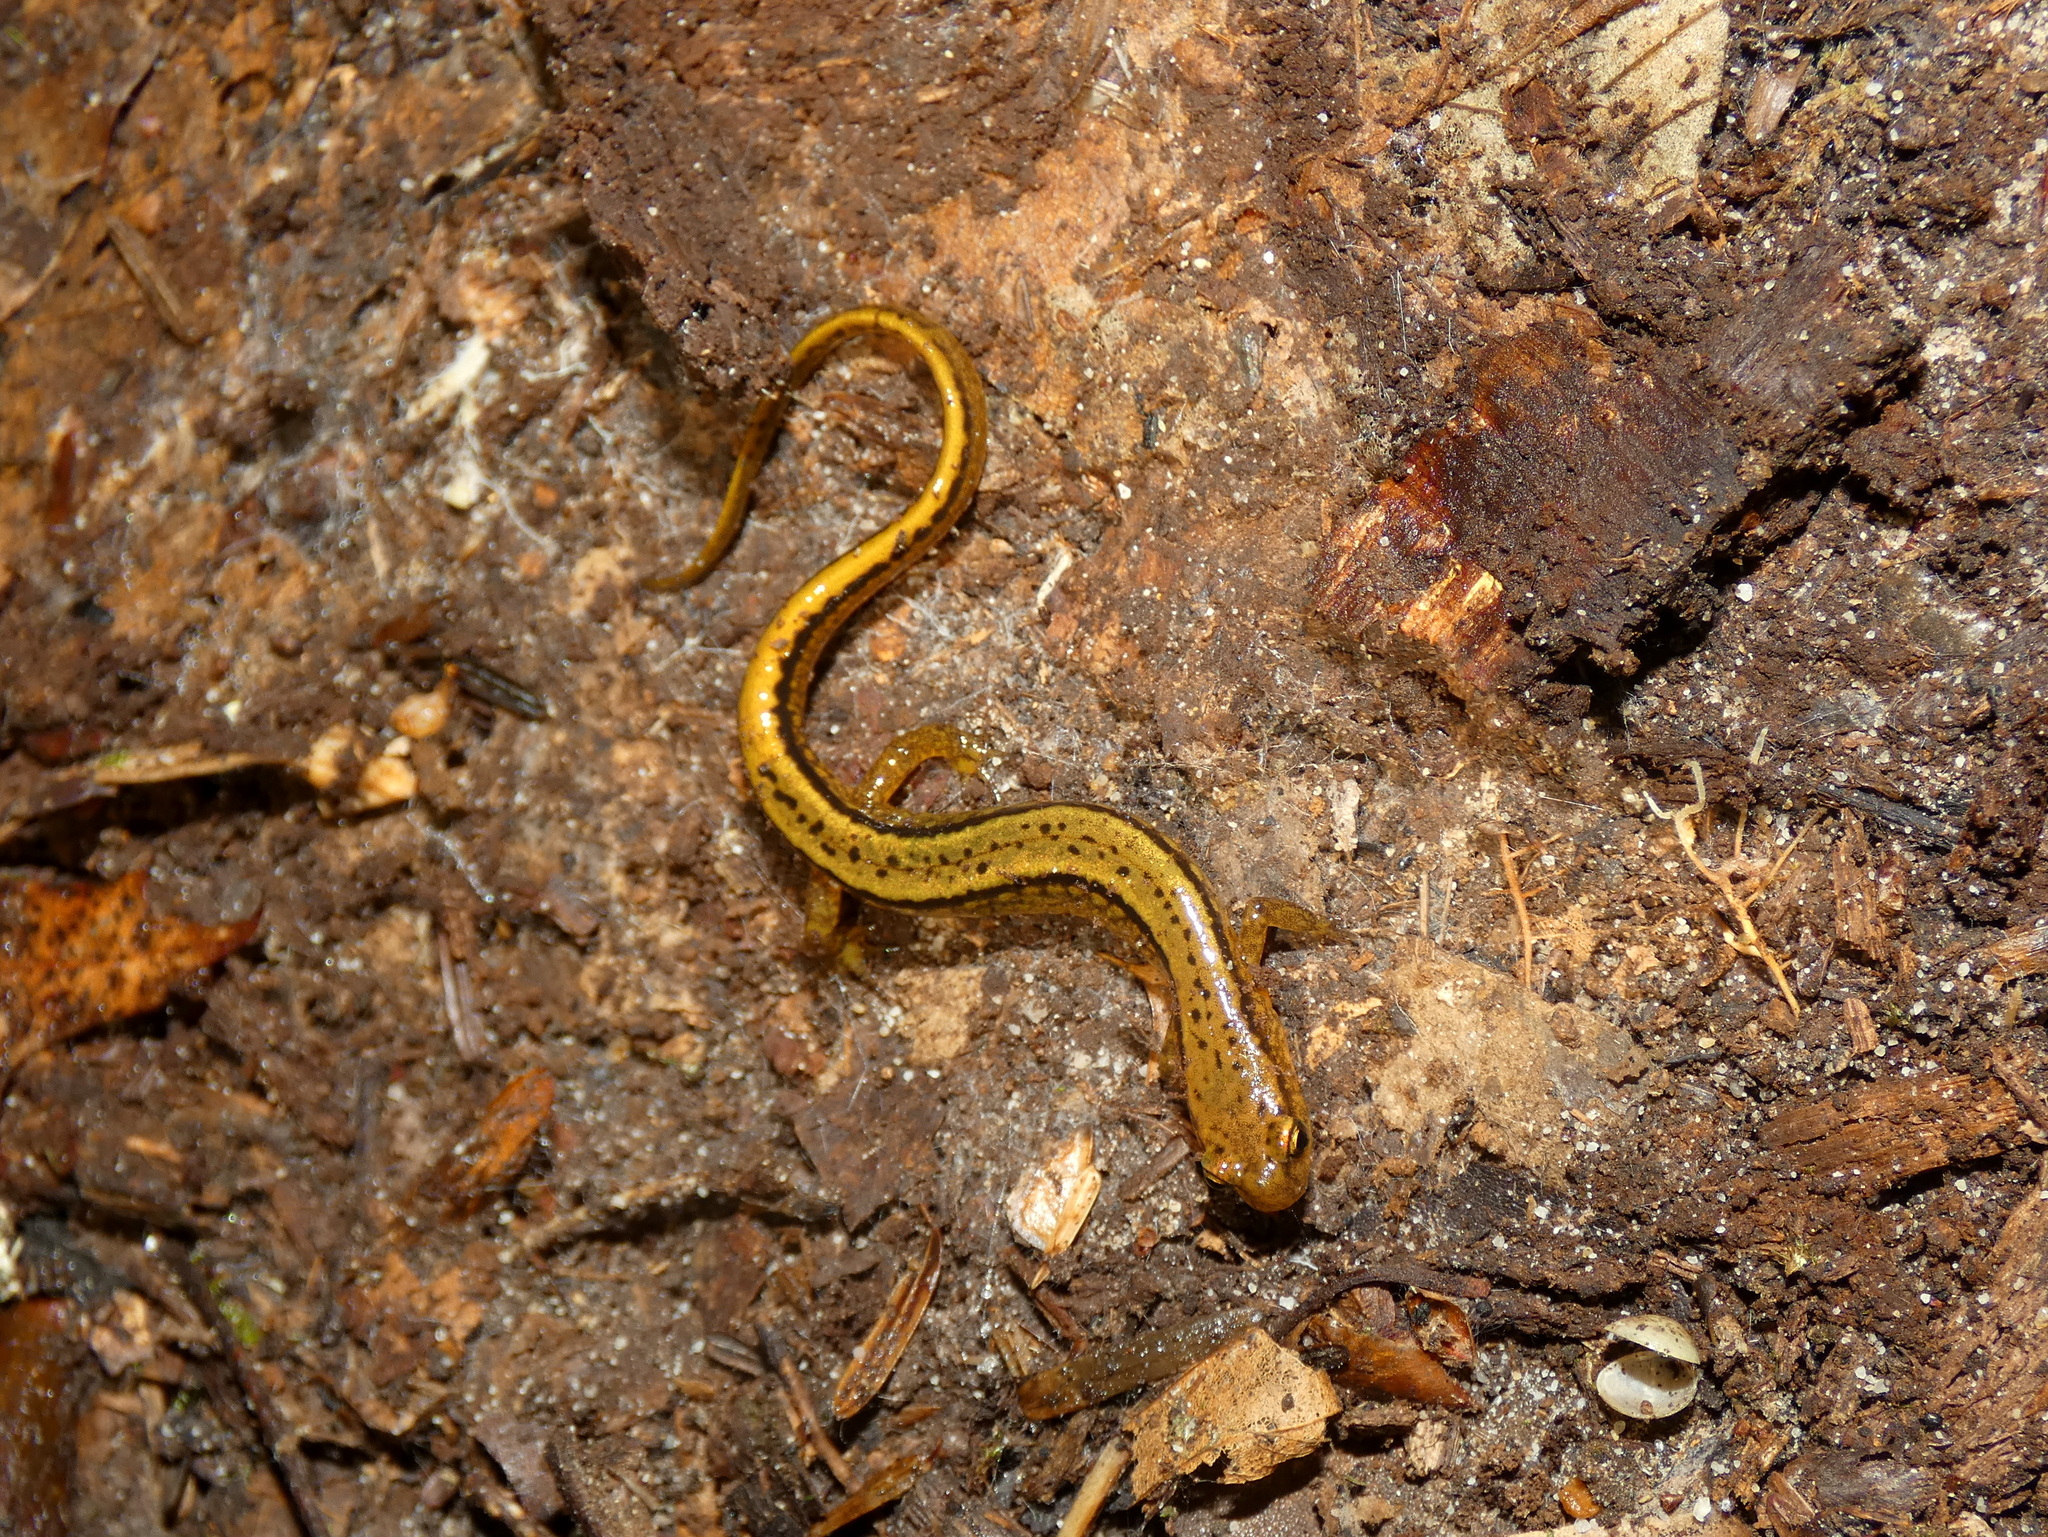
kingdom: Animalia
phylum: Chordata
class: Amphibia
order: Caudata
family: Plethodontidae
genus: Eurycea
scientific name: Eurycea bislineata
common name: Northern two-lined salamander
